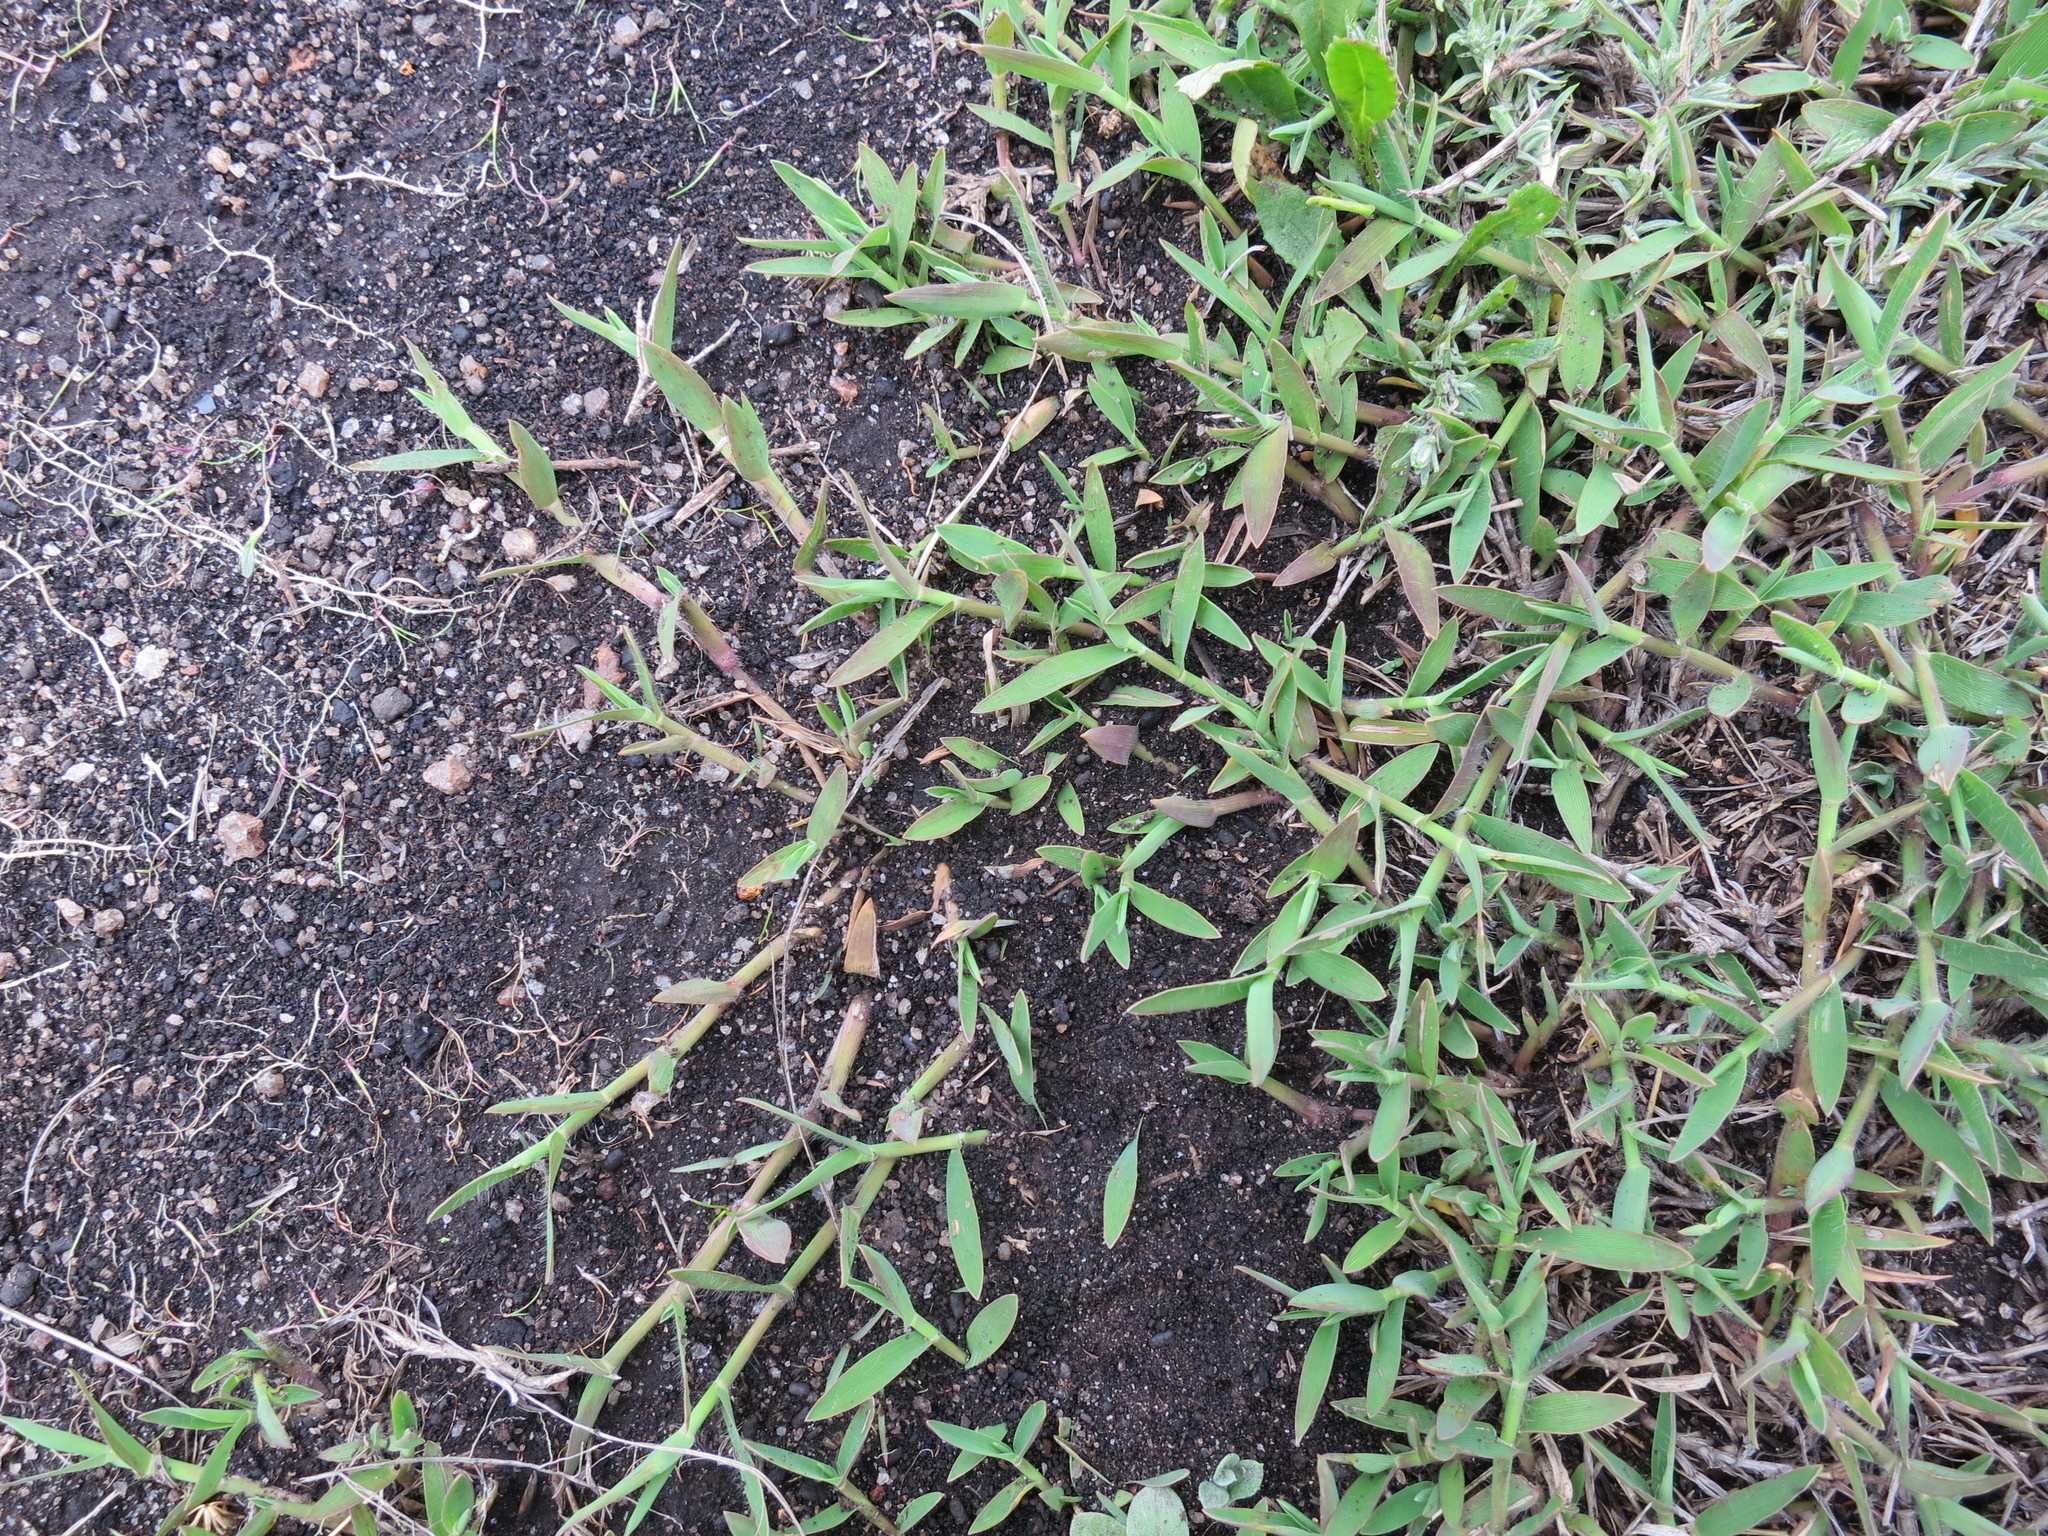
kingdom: Plantae
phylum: Tracheophyta
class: Liliopsida
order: Poales
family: Poaceae
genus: Digitaria
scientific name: Digitaria abyssinica
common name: African couchgrass
